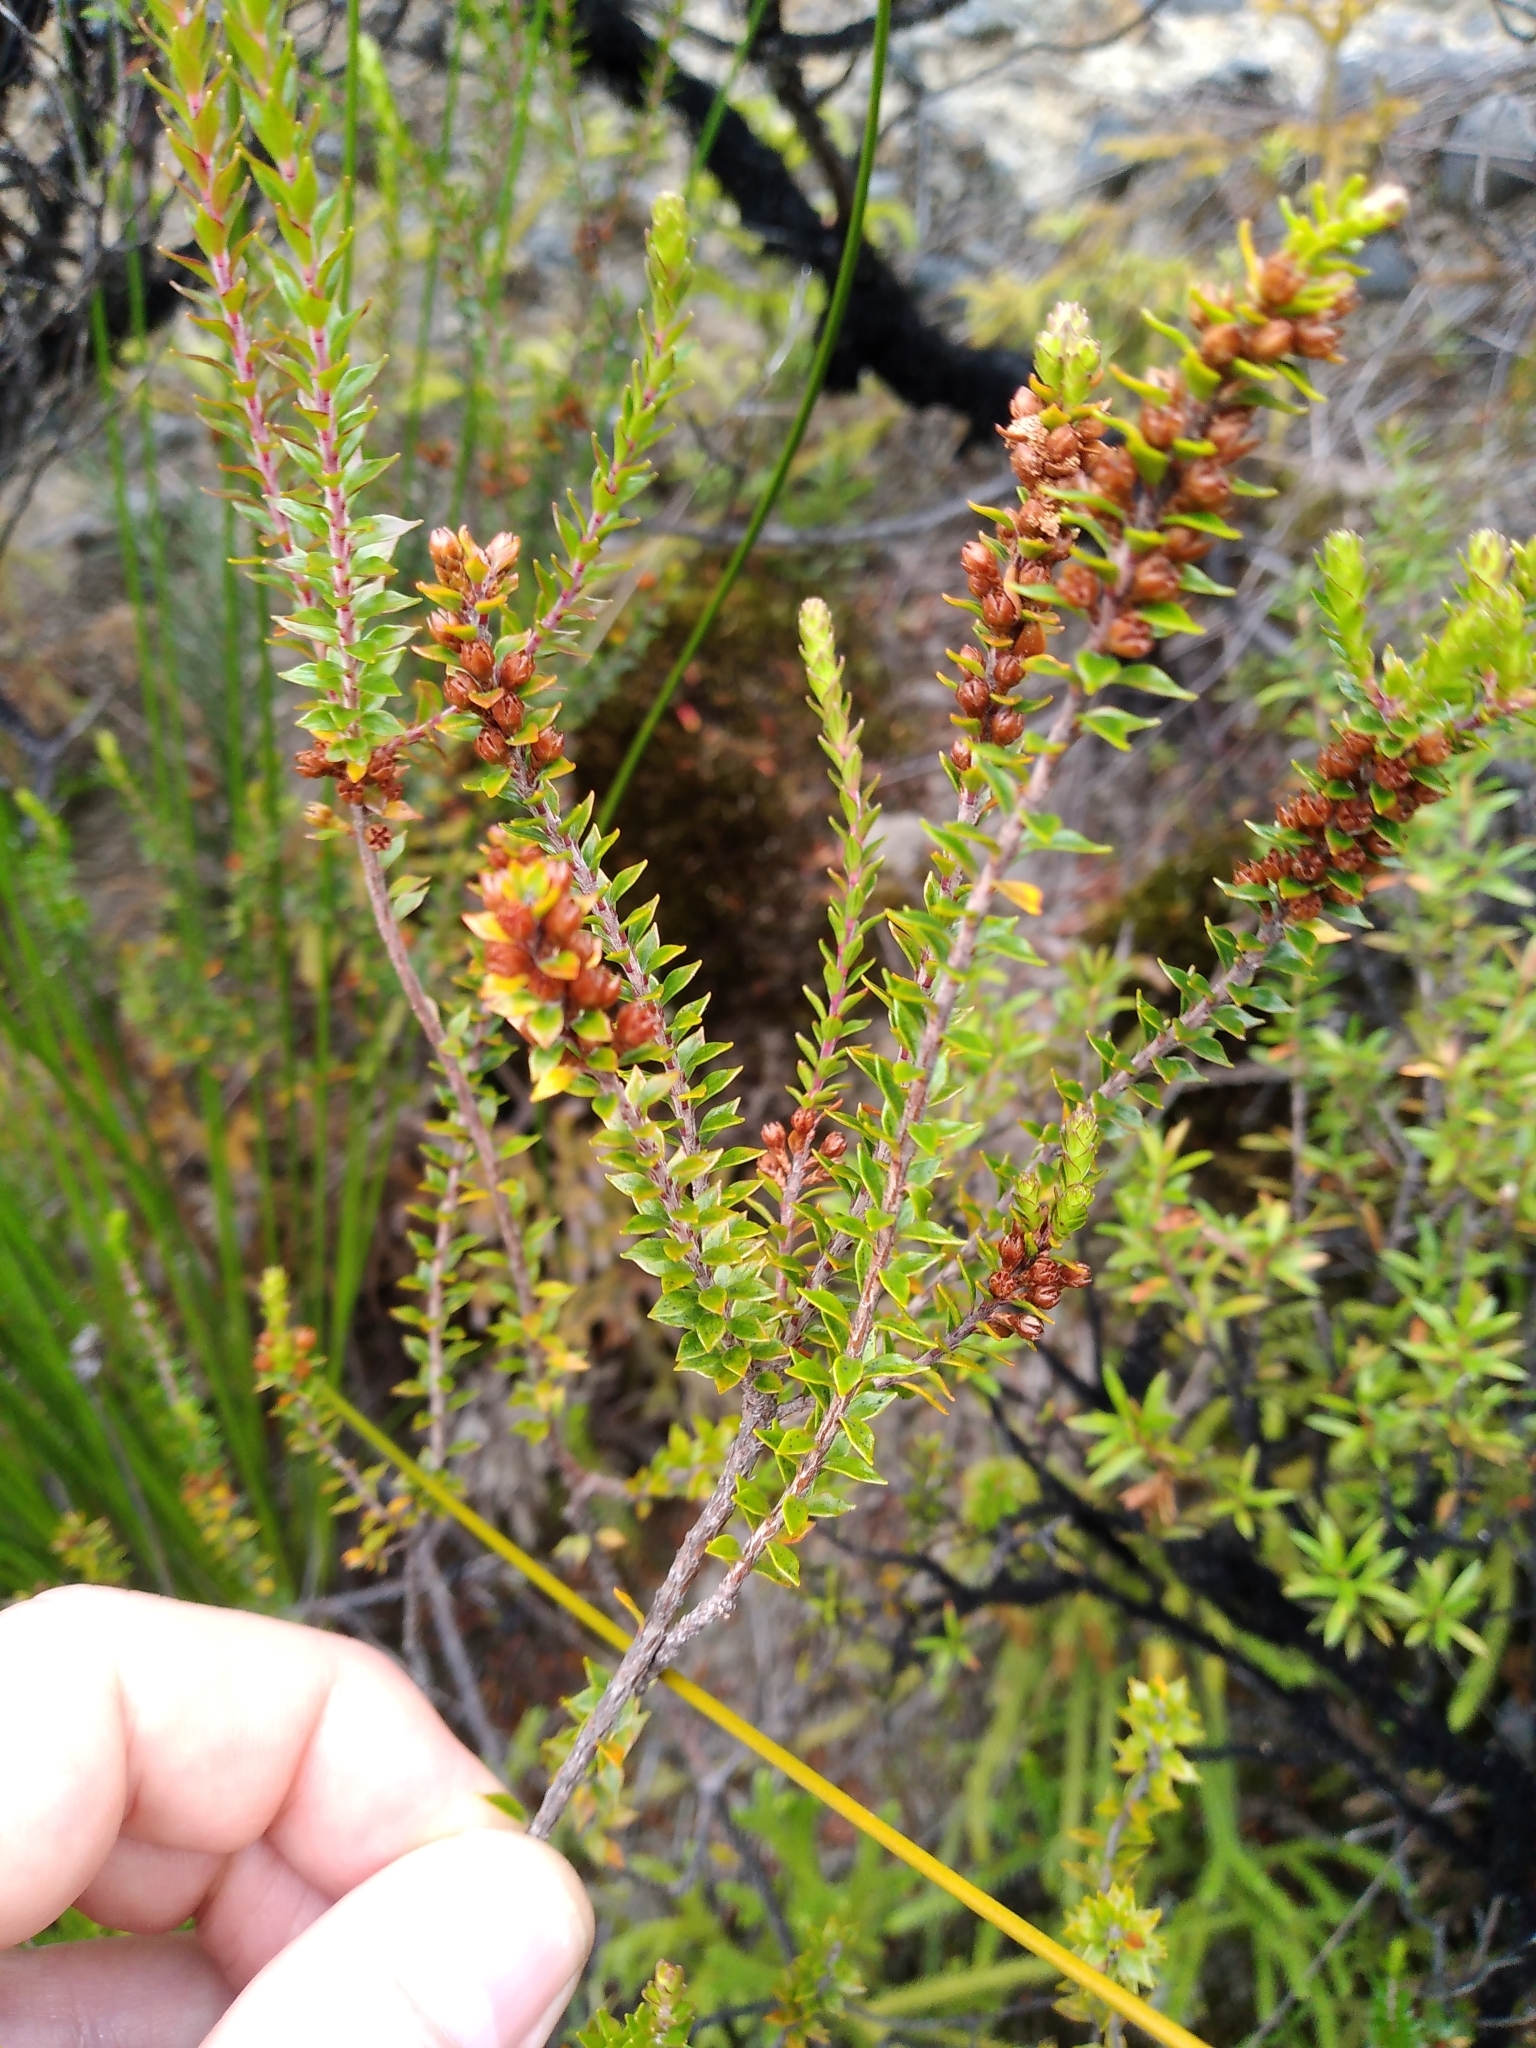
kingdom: Plantae
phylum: Tracheophyta
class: Magnoliopsida
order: Ericales
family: Ericaceae
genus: Epacris
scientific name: Epacris pauciflora
